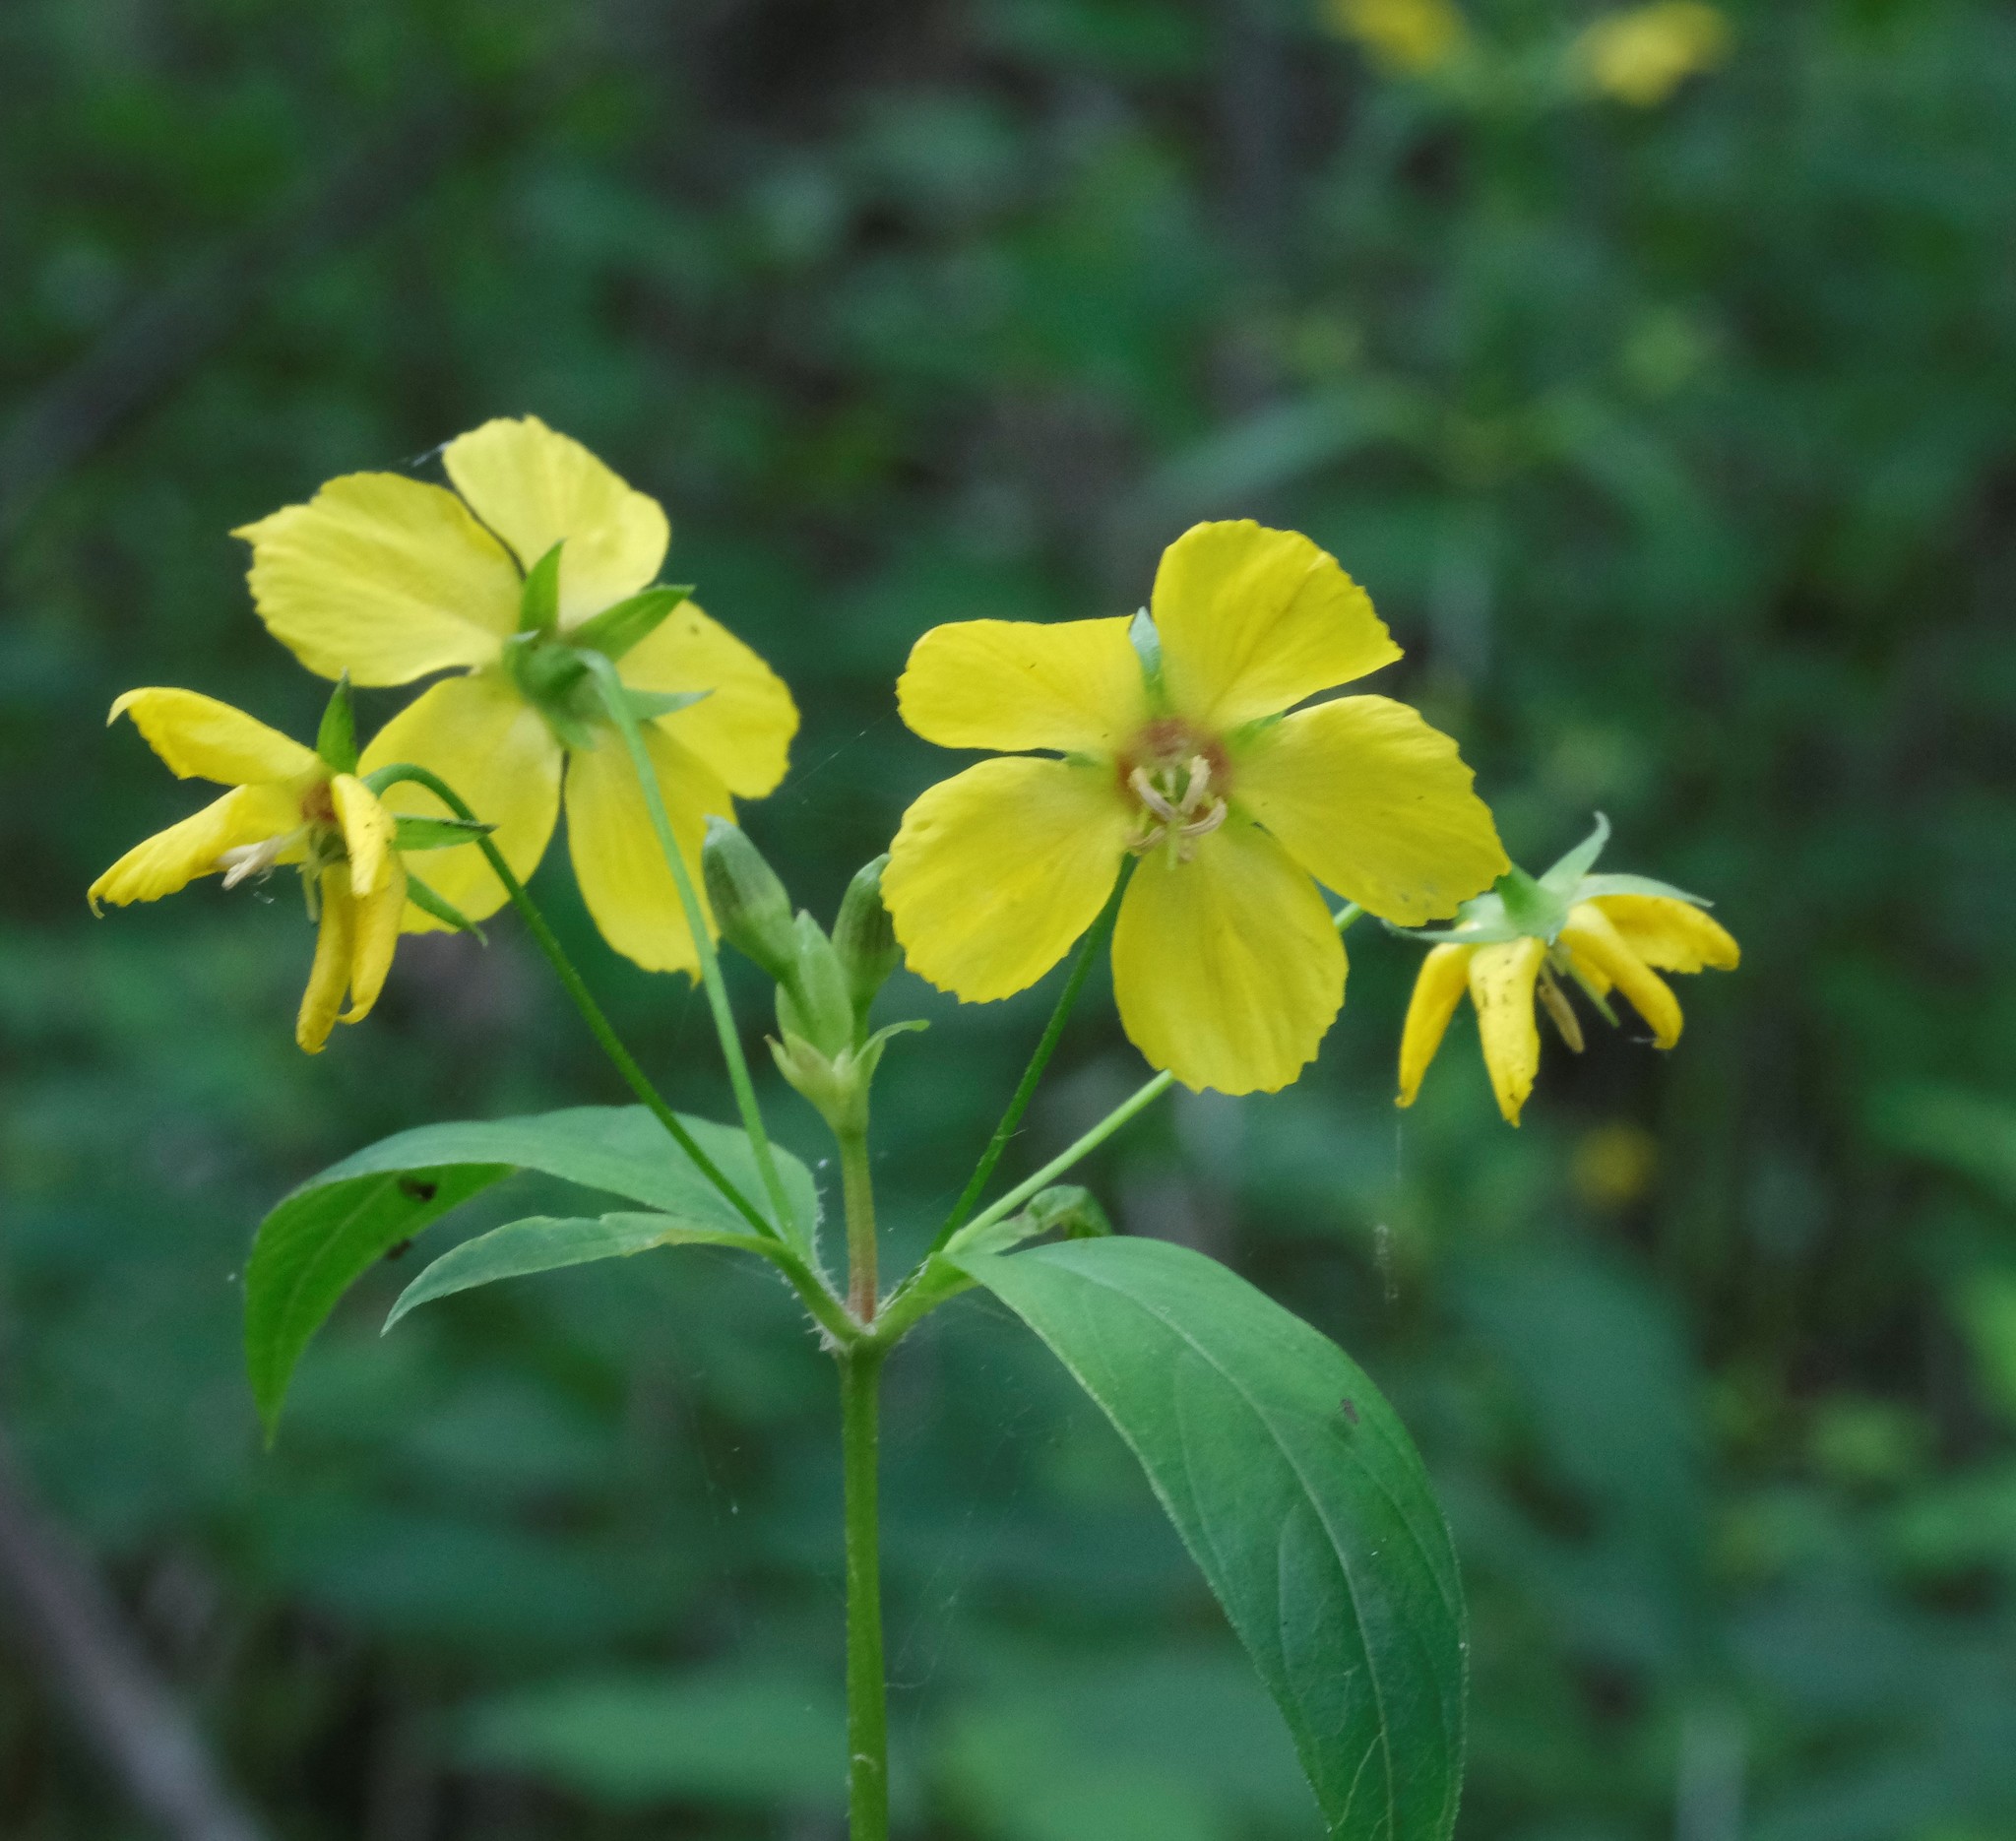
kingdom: Plantae
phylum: Tracheophyta
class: Magnoliopsida
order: Ericales
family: Primulaceae
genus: Lysimachia
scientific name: Lysimachia ciliata
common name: Fringed loosestrife
